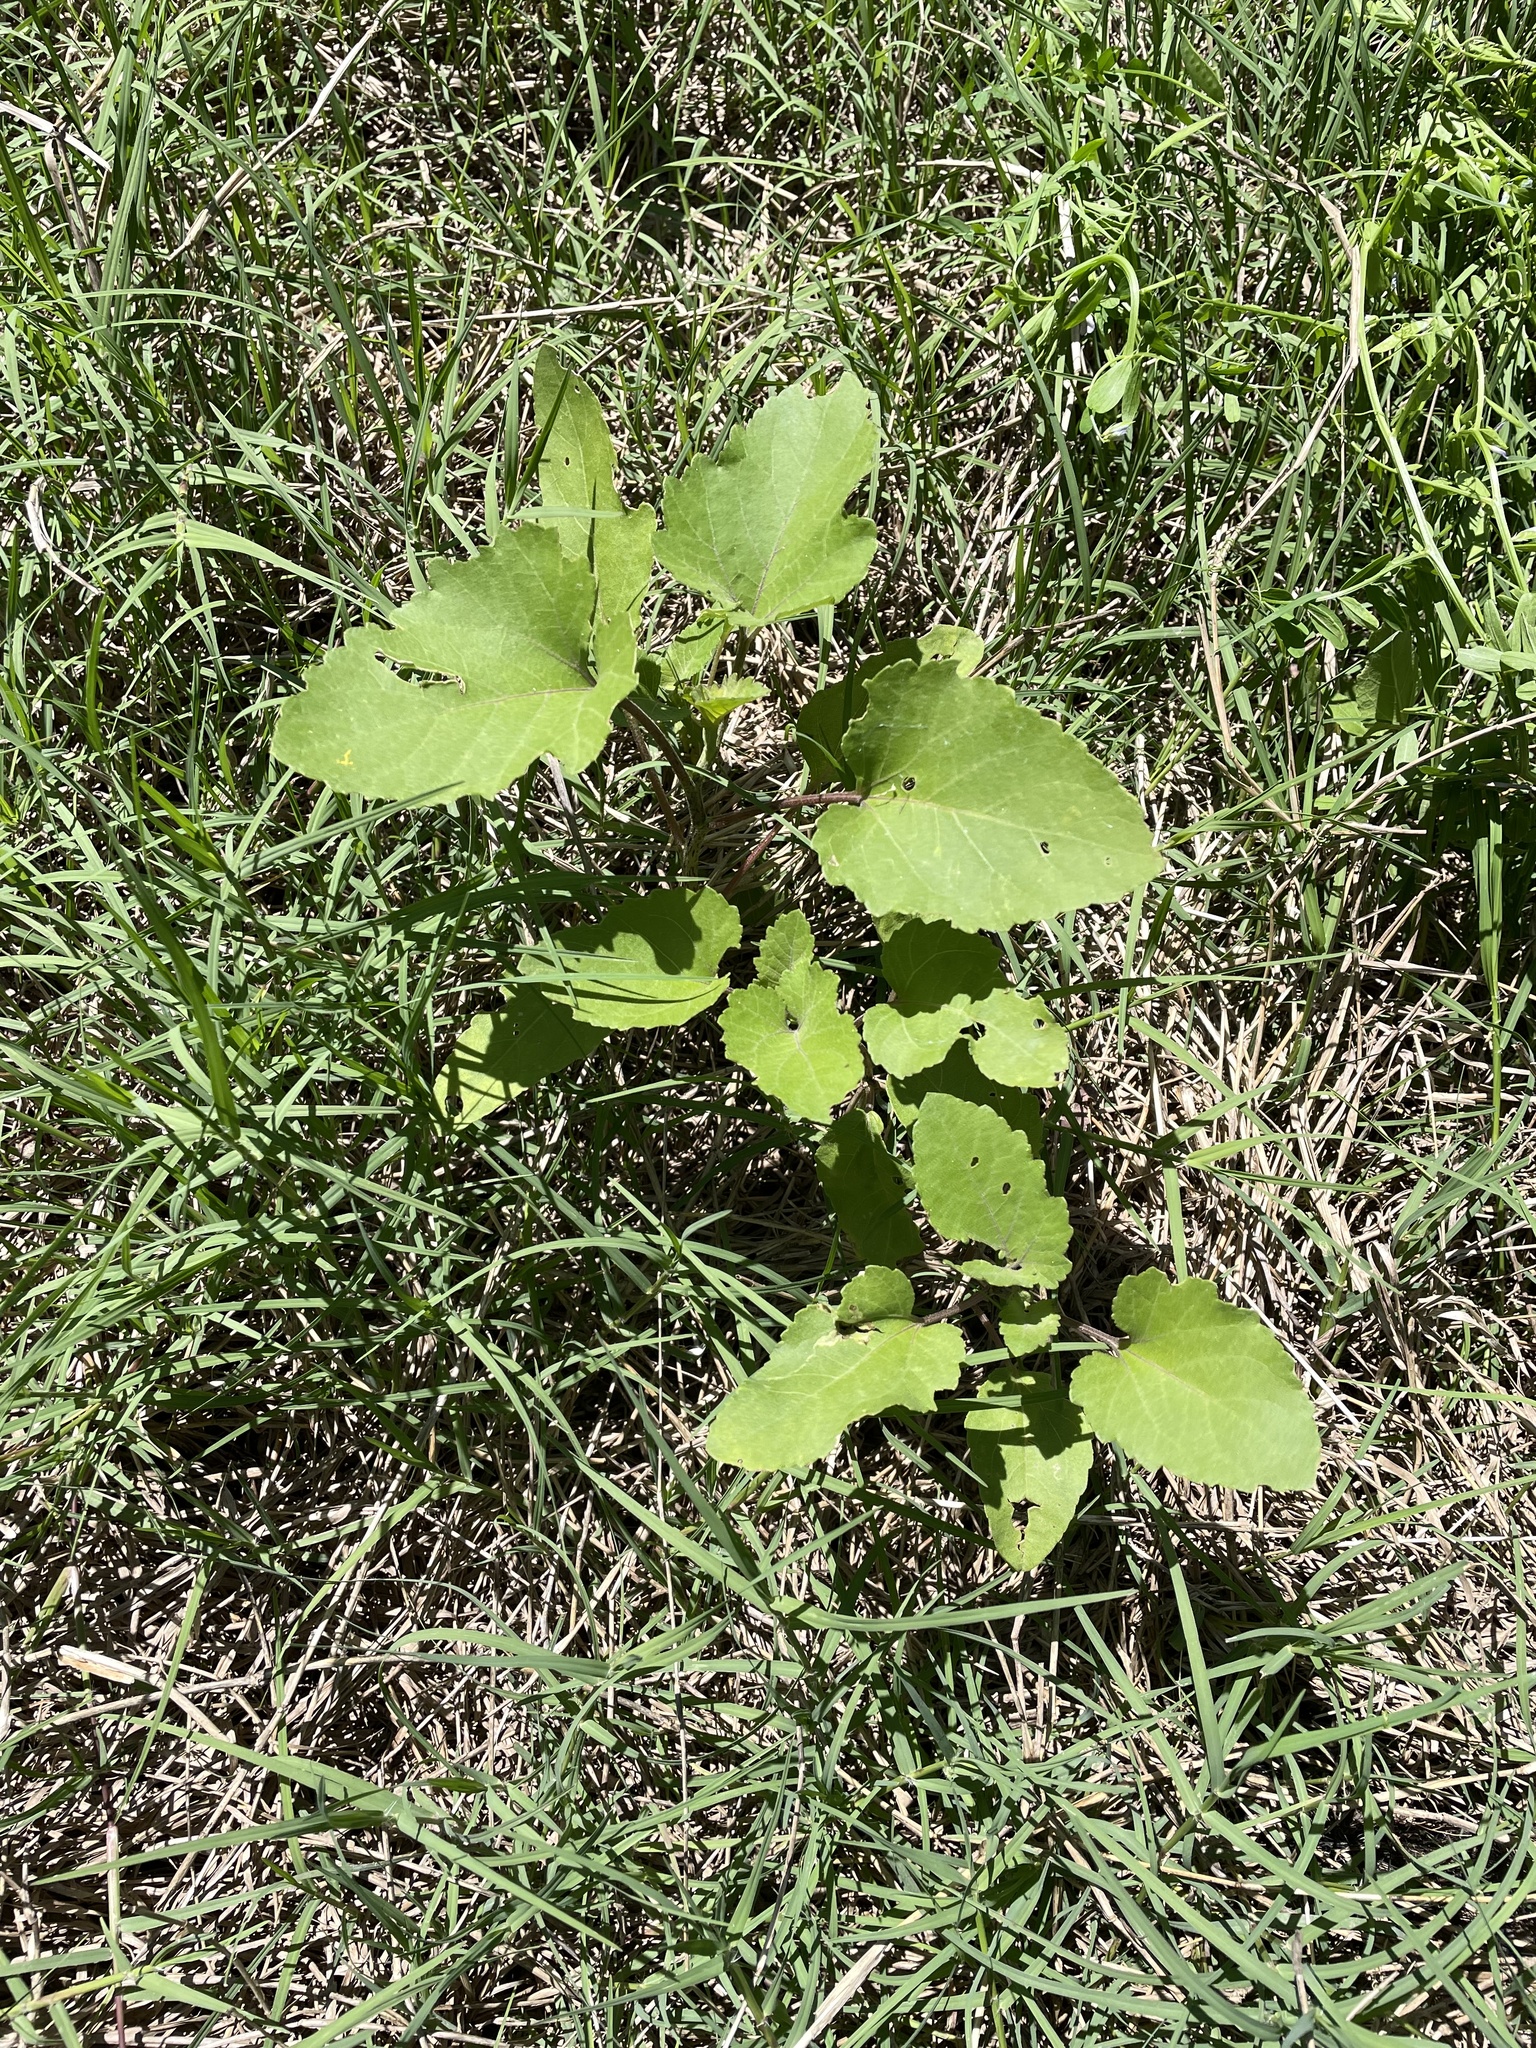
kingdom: Plantae
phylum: Tracheophyta
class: Magnoliopsida
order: Asterales
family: Asteraceae
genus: Xanthium
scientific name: Xanthium strumarium
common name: Rough cocklebur
